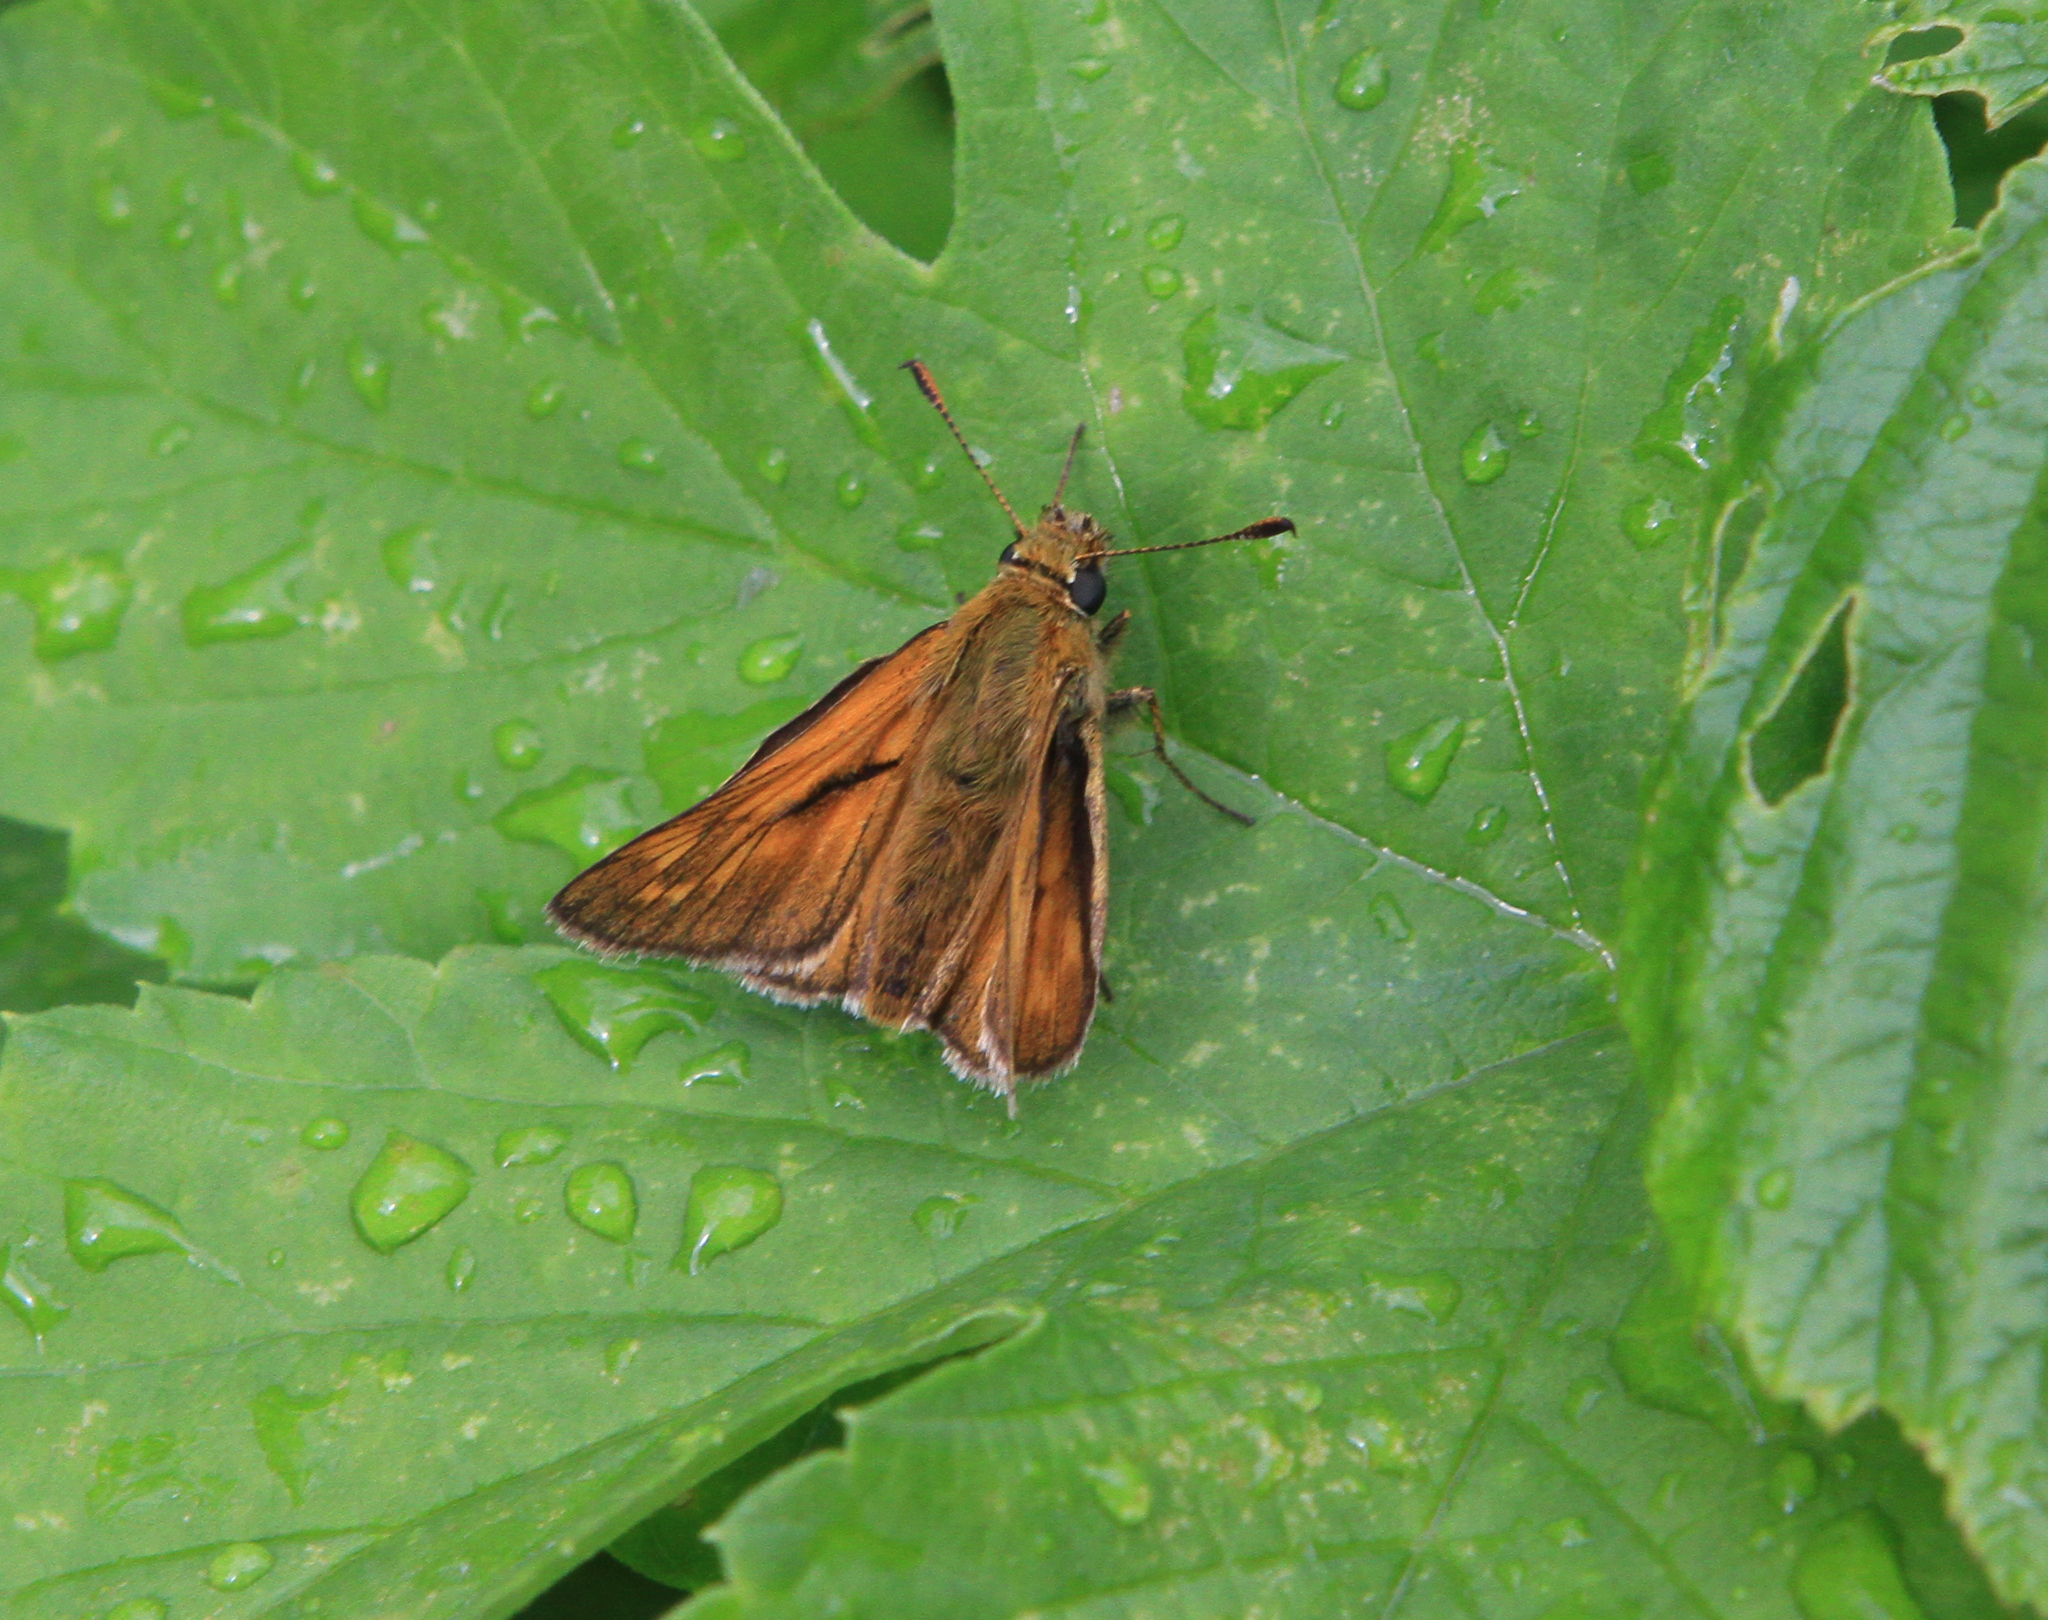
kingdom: Animalia
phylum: Arthropoda
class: Insecta
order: Lepidoptera
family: Hesperiidae
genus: Ochlodes
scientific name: Ochlodes venata
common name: Large skipper
